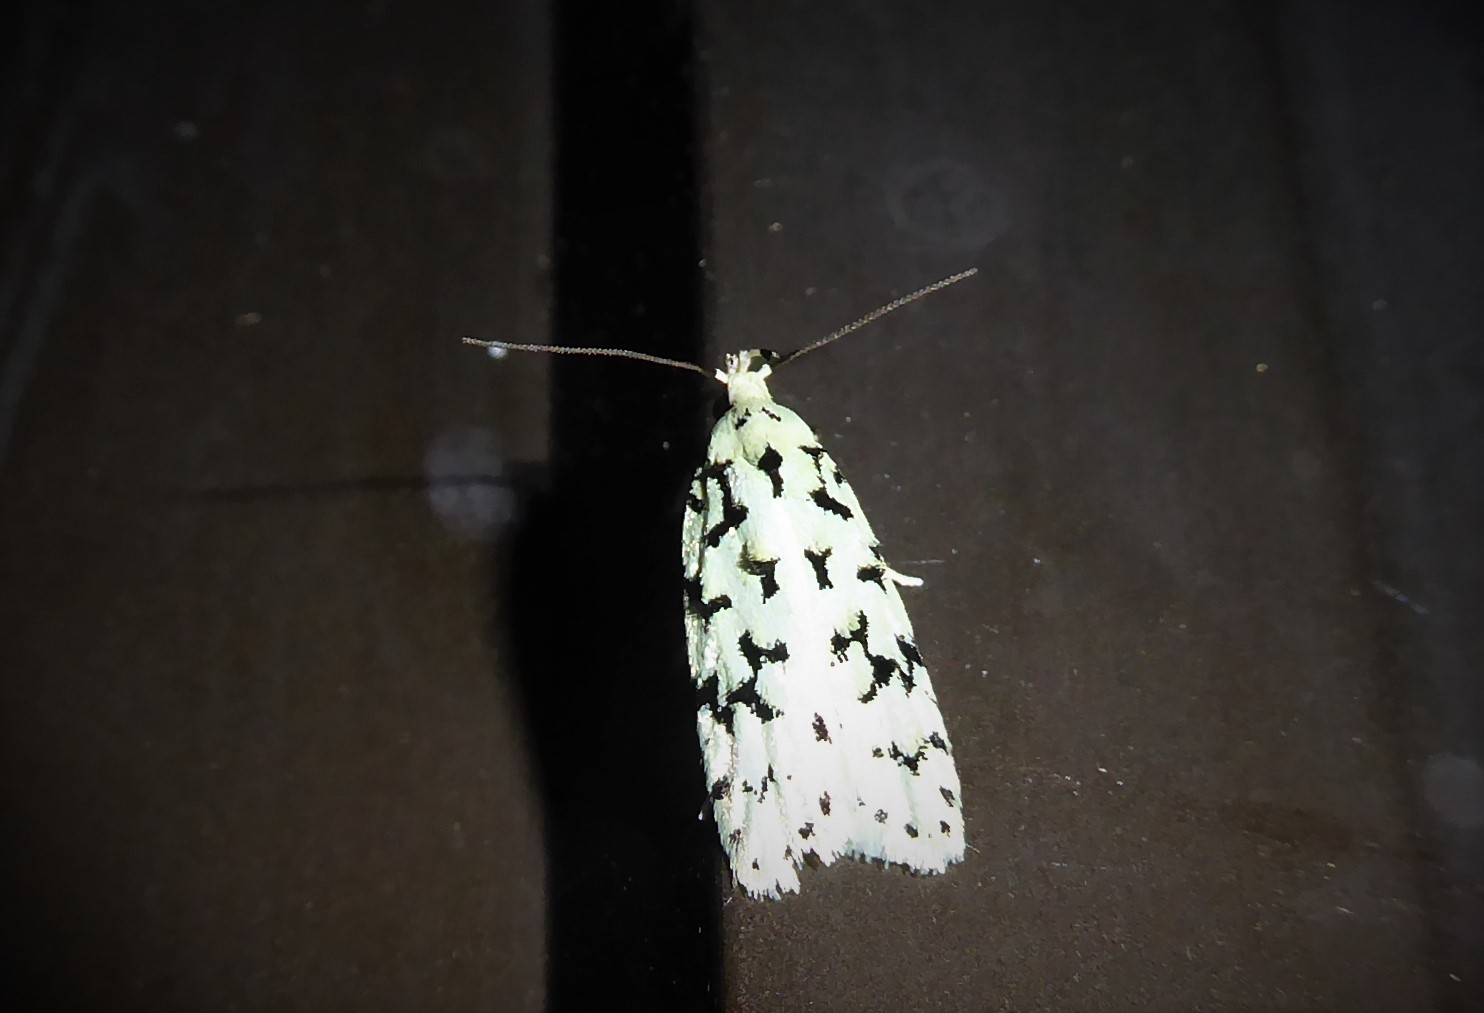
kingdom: Animalia
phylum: Arthropoda
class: Insecta
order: Lepidoptera
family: Oecophoridae
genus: Izatha
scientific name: Izatha huttoni
